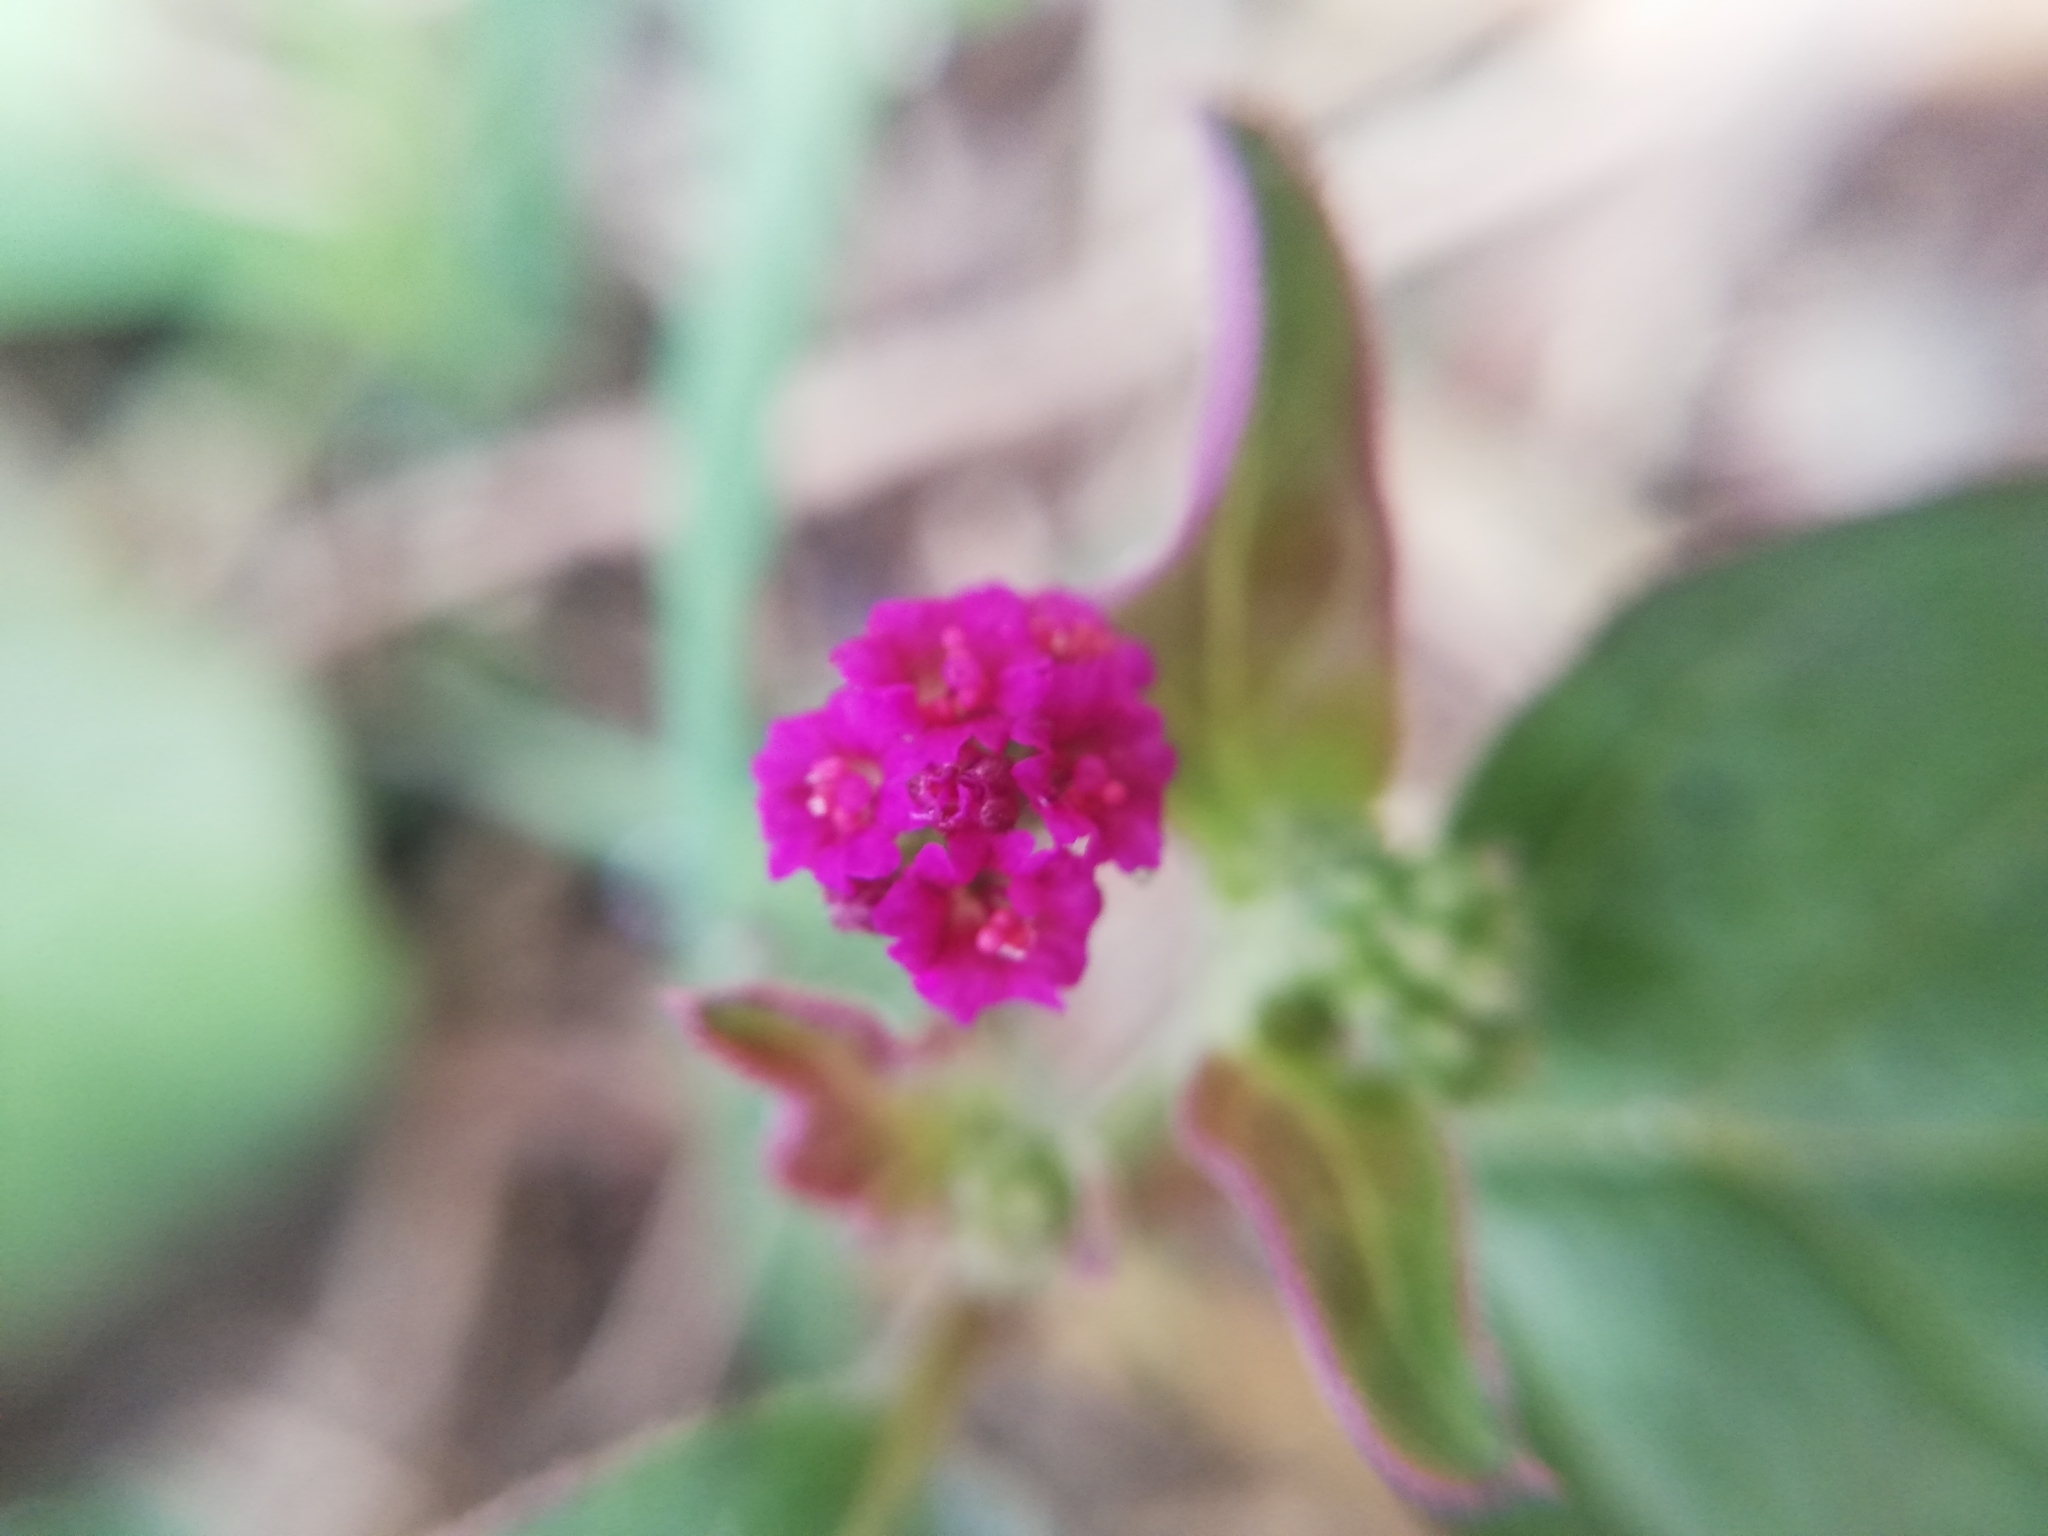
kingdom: Plantae
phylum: Tracheophyta
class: Magnoliopsida
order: Caryophyllales
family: Nyctaginaceae
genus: Boerhavia
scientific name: Boerhavia coccinea
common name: Scarlet spiderling
